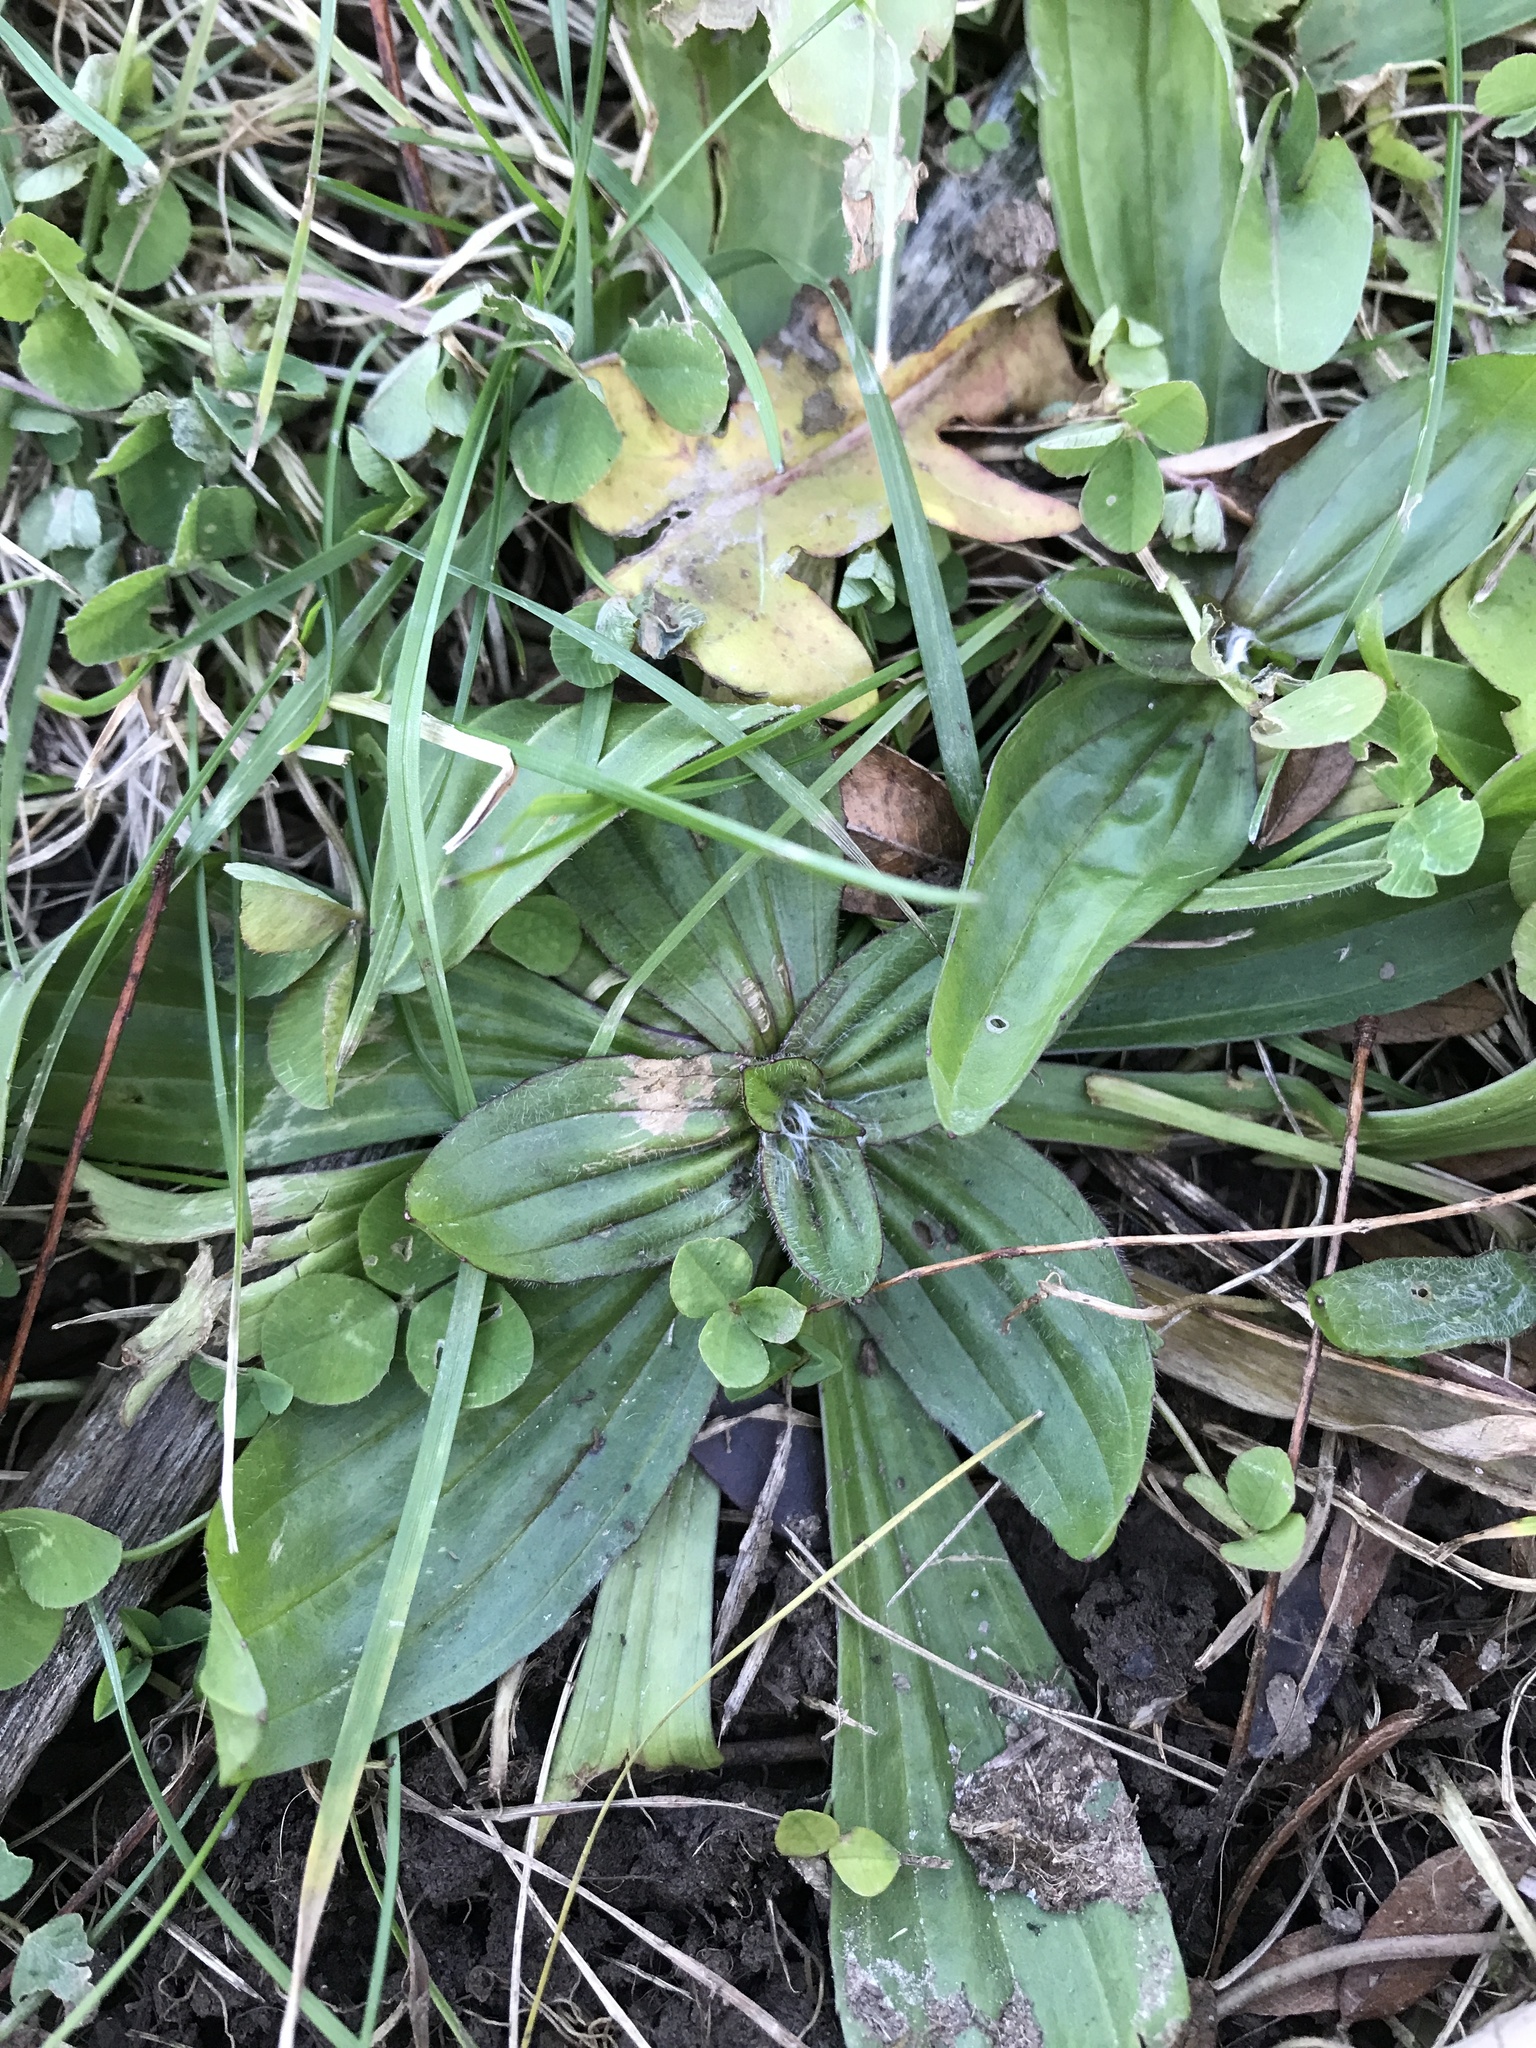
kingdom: Plantae
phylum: Tracheophyta
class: Magnoliopsida
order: Lamiales
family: Plantaginaceae
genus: Plantago
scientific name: Plantago lanceolata
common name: Ribwort plantain
